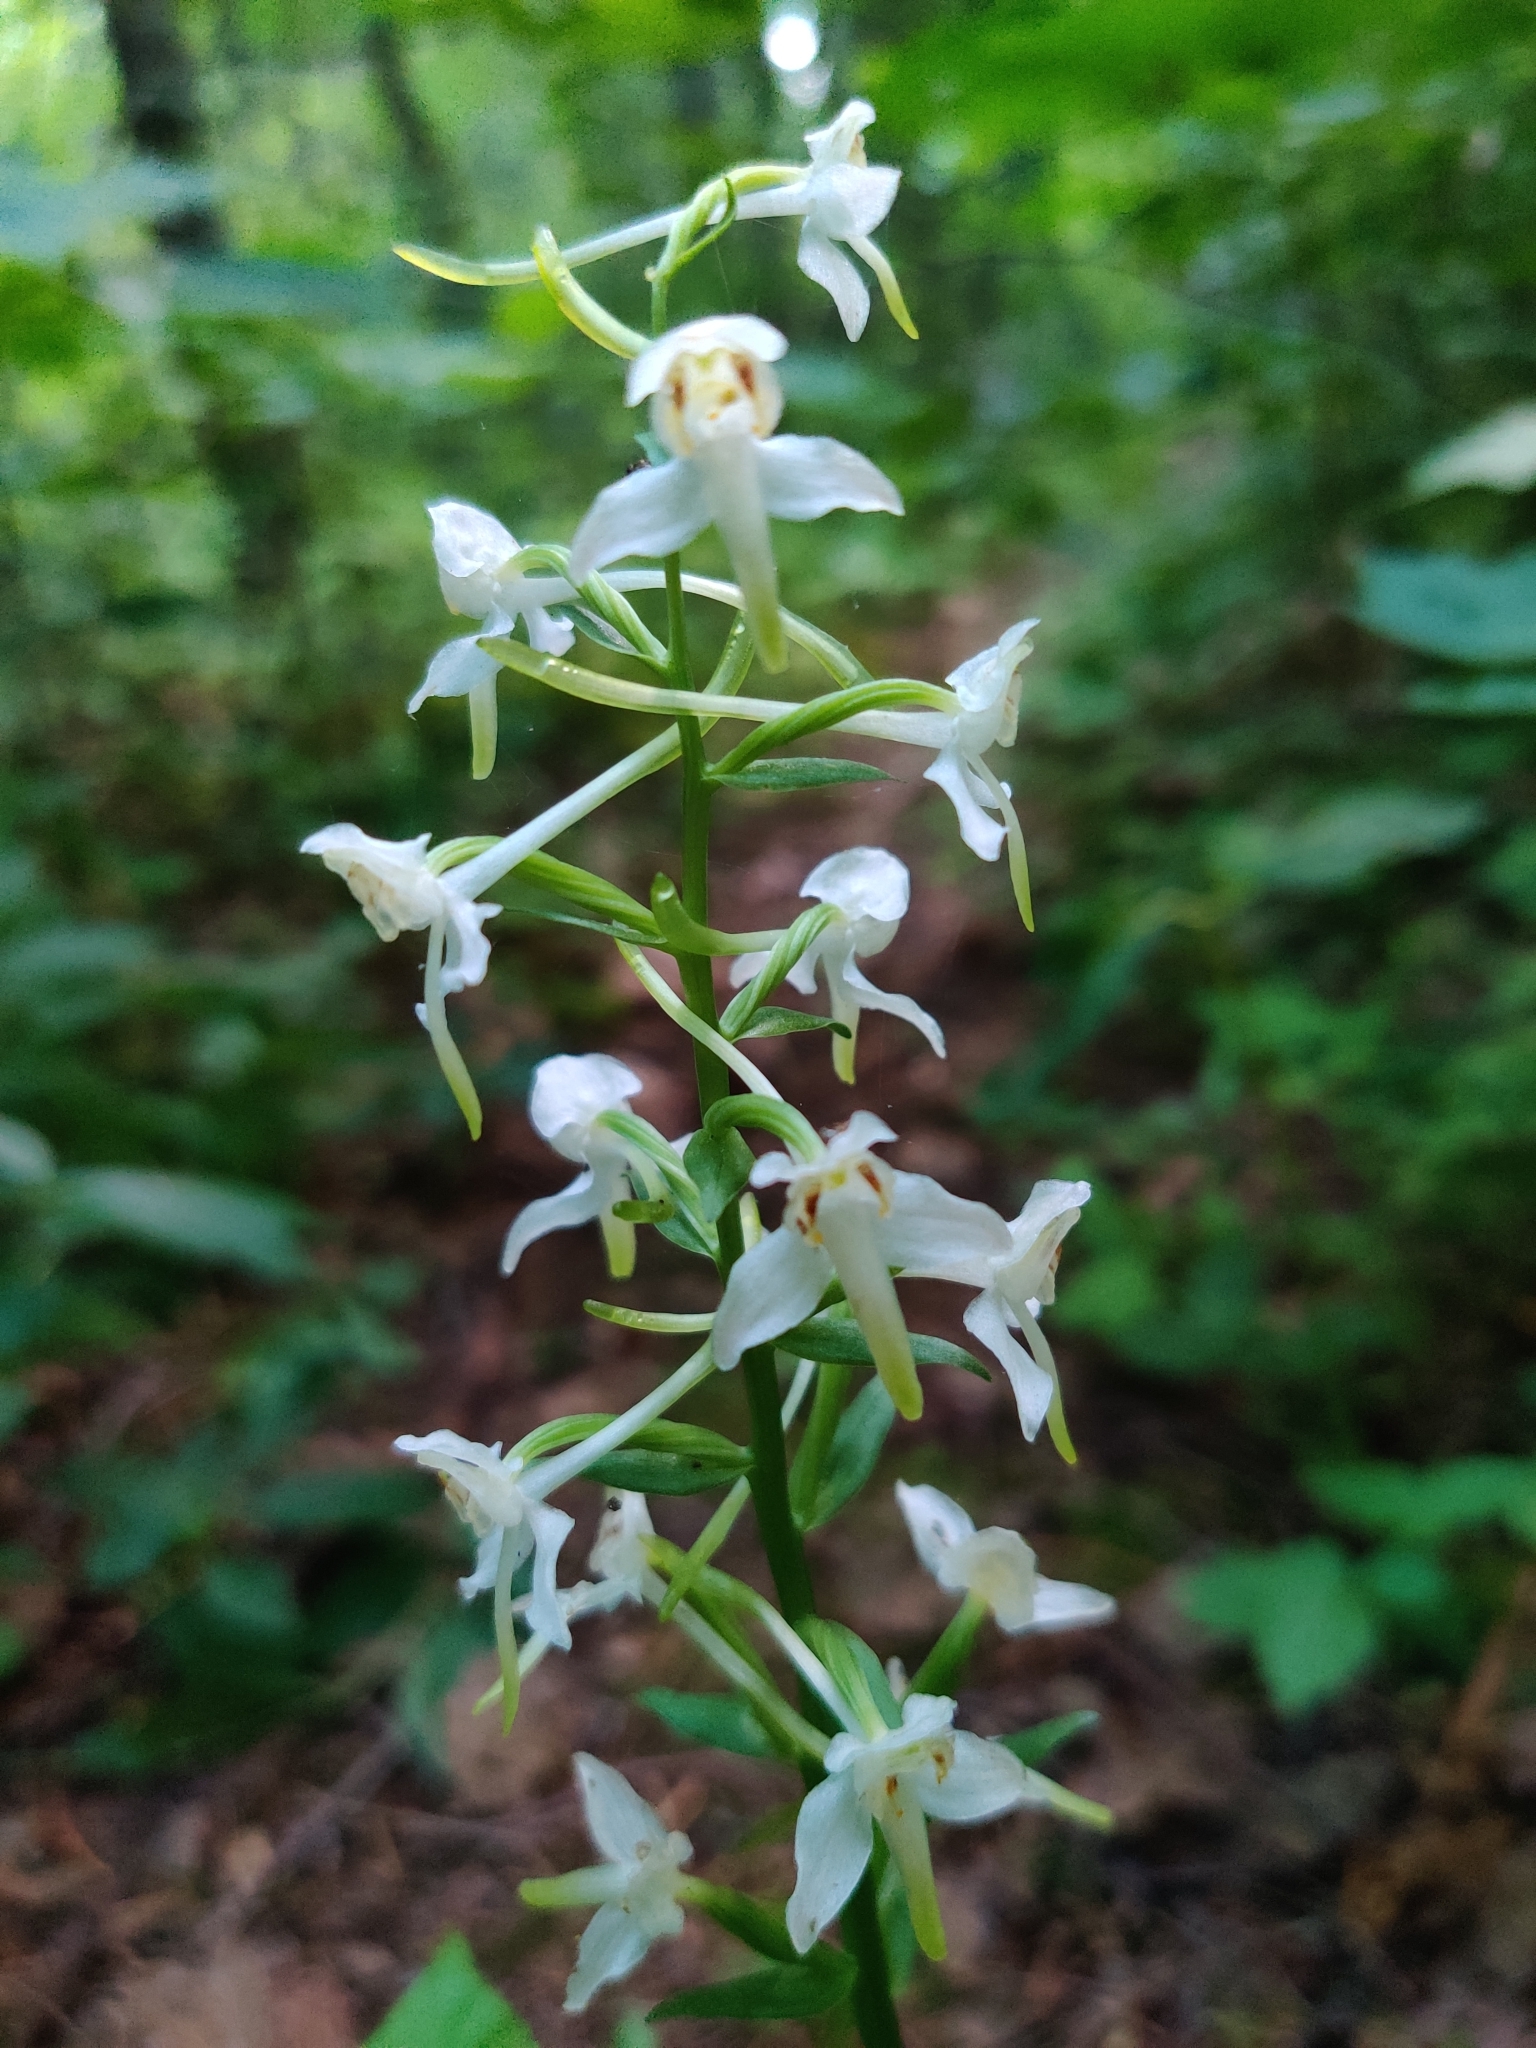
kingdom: Plantae
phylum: Tracheophyta
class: Liliopsida
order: Asparagales
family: Orchidaceae
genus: Platanthera
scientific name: Platanthera chlorantha
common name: Greater butterfly-orchid
